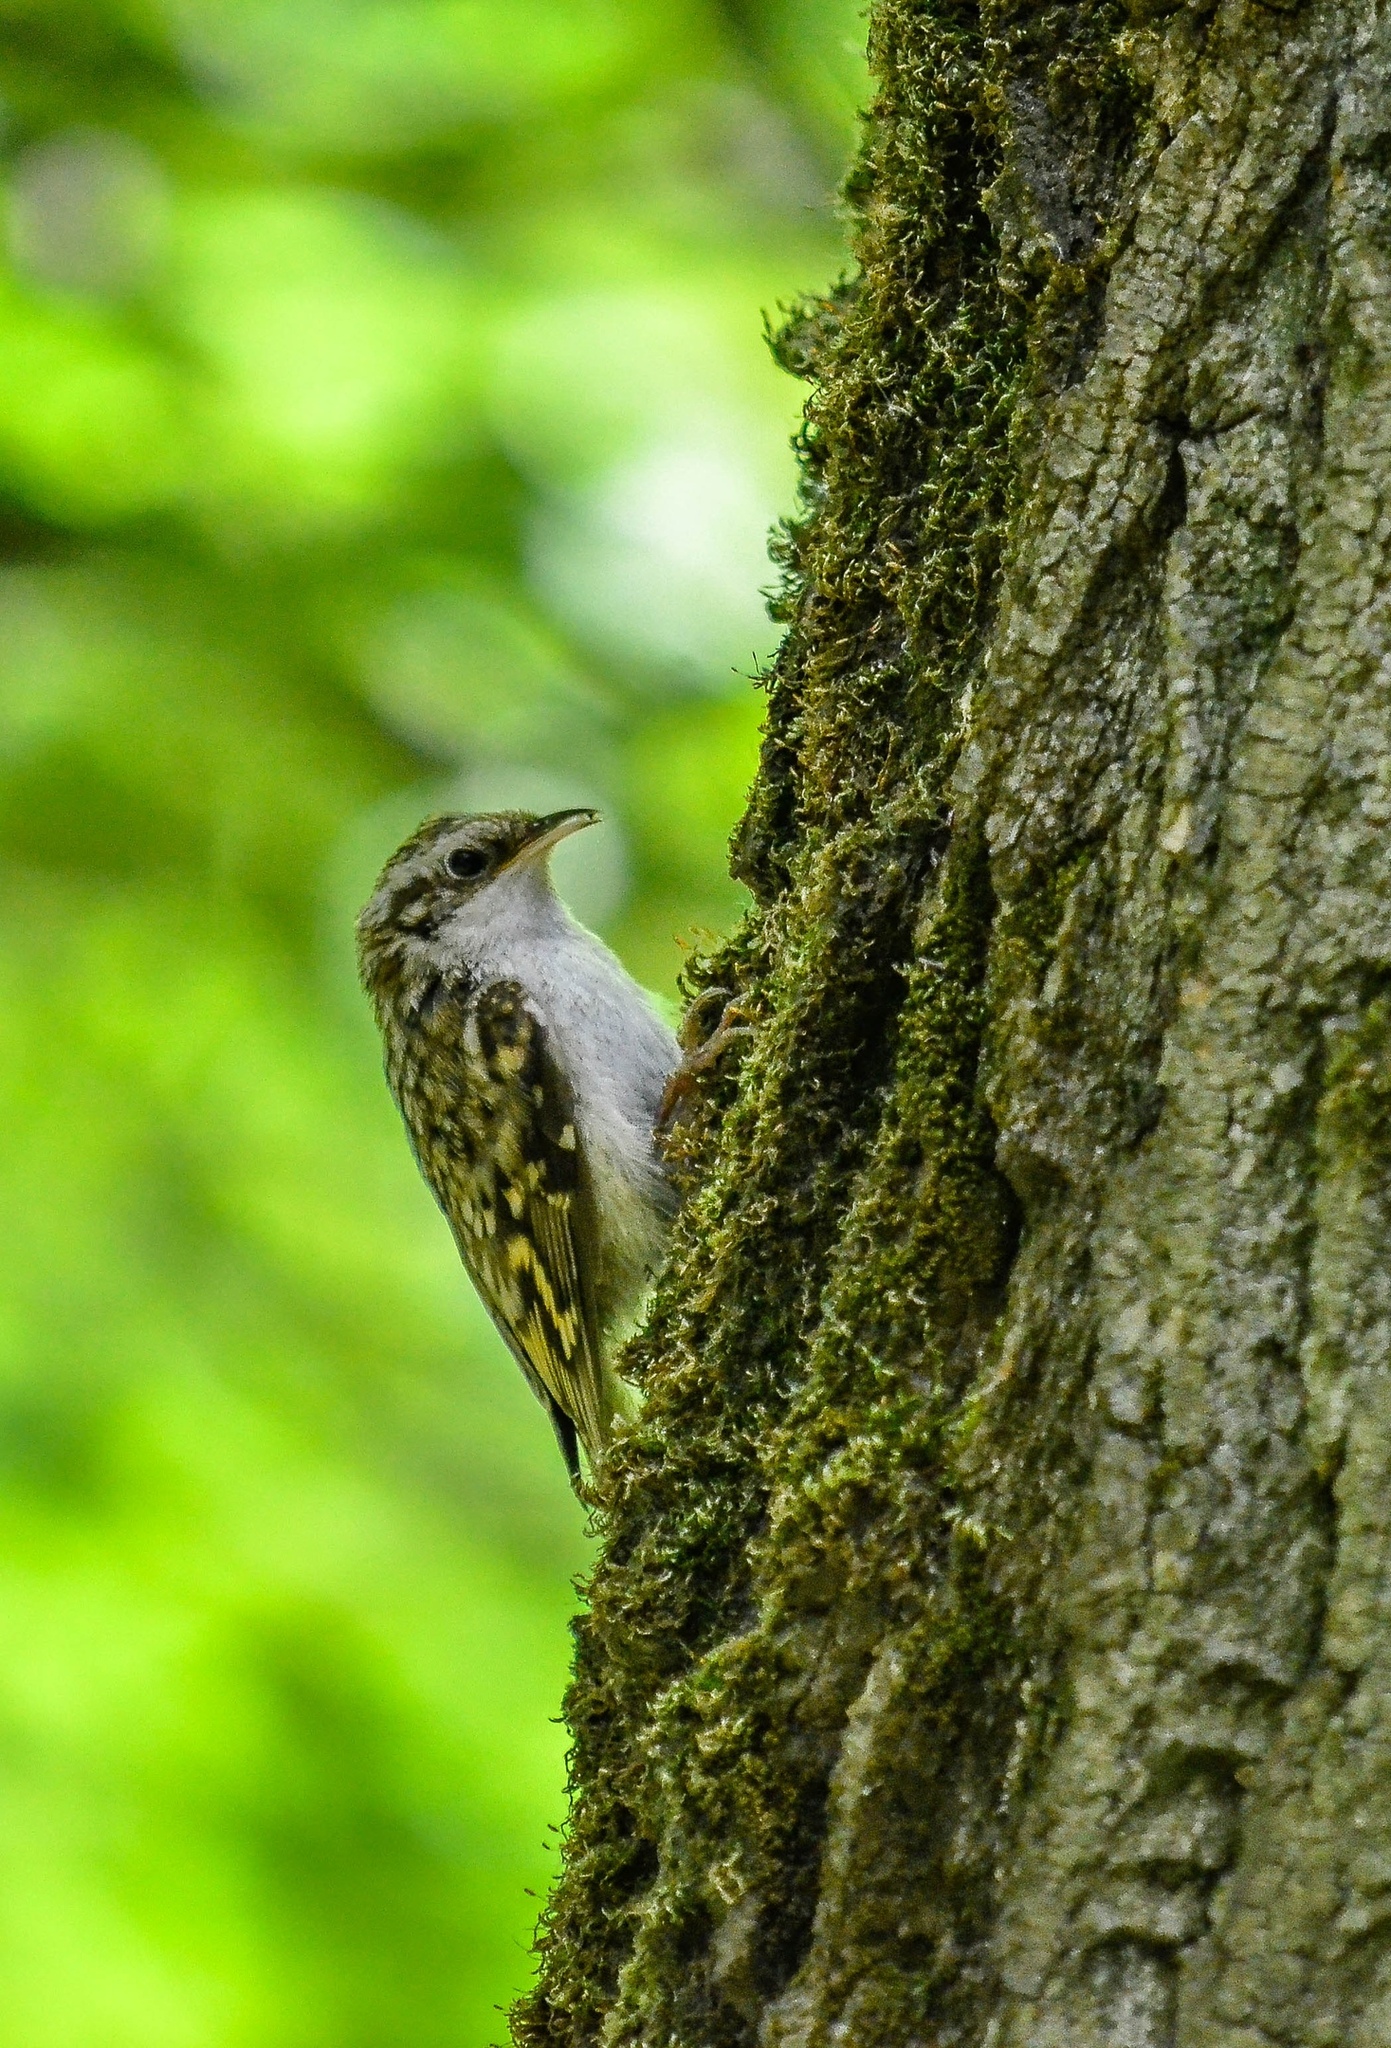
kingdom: Animalia
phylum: Chordata
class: Aves
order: Passeriformes
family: Certhiidae
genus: Certhia
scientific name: Certhia familiaris
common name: Eurasian treecreeper
